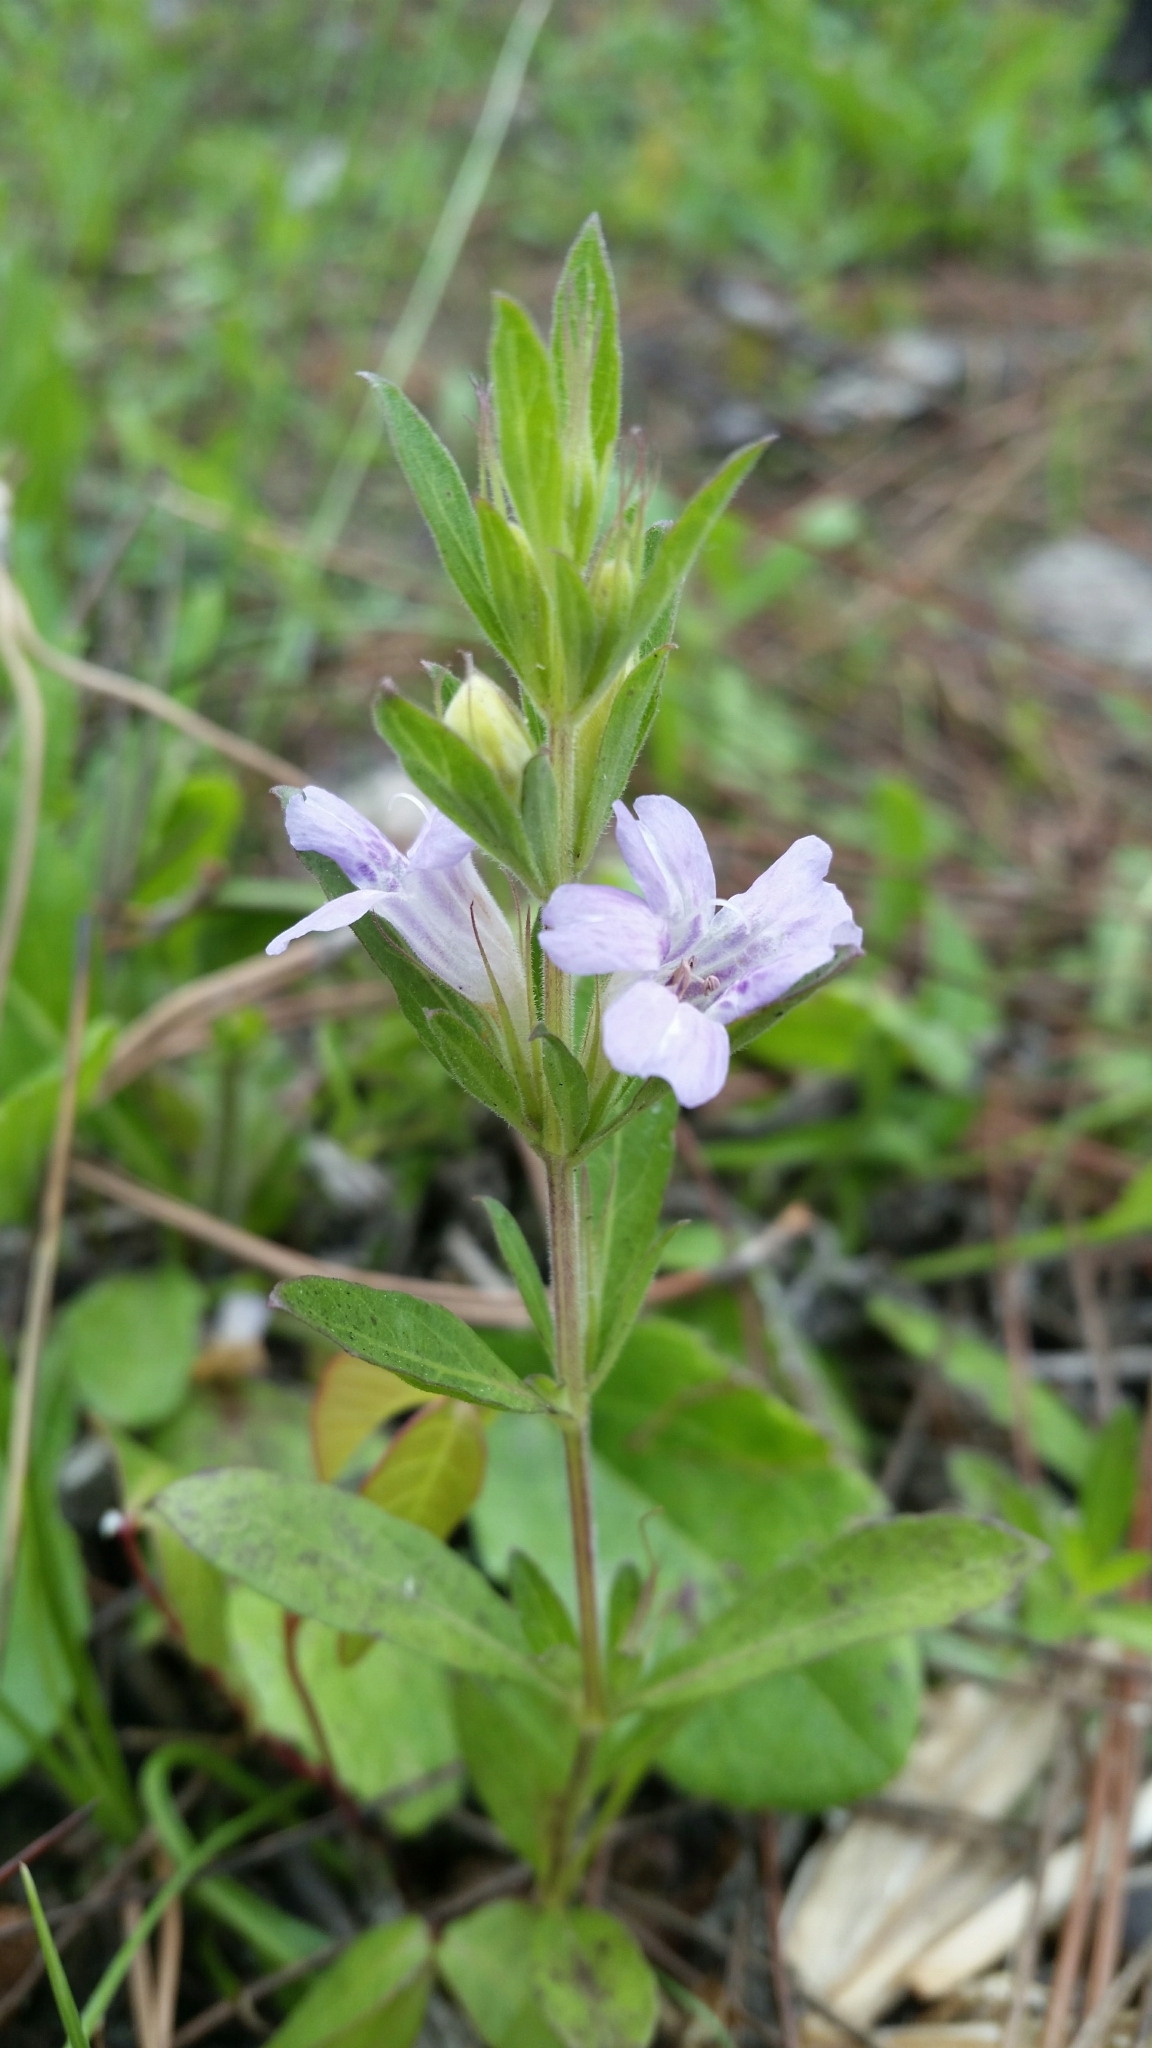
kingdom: Plantae
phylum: Tracheophyta
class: Magnoliopsida
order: Lamiales
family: Acanthaceae
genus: Dyschoriste
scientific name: Dyschoriste oblongifolia
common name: Blue twinflower
